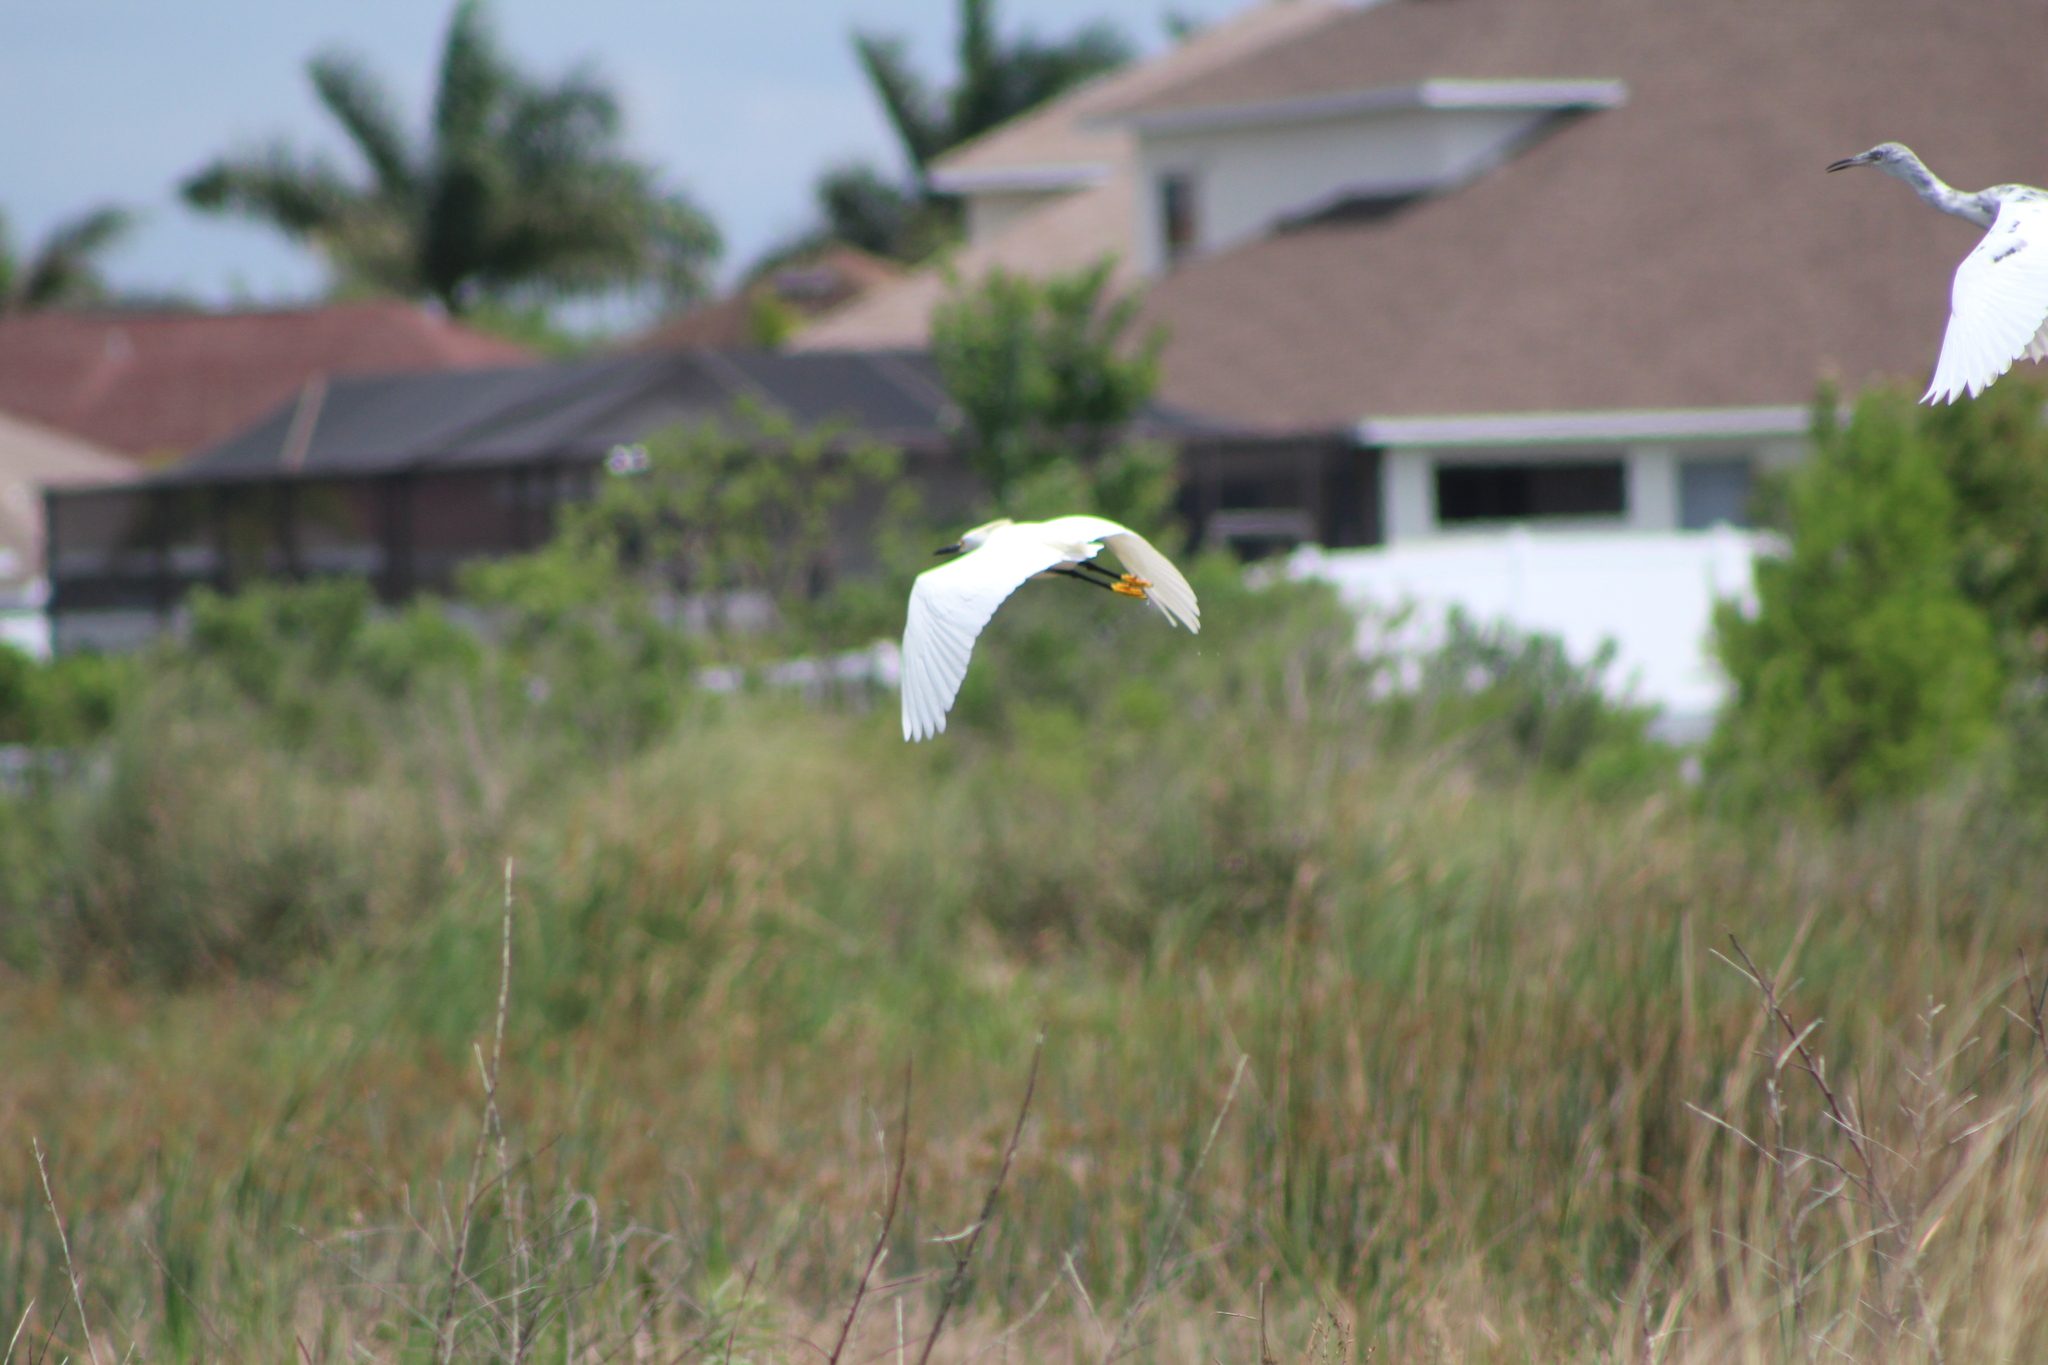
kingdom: Animalia
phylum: Chordata
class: Aves
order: Pelecaniformes
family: Ardeidae
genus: Egretta
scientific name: Egretta thula
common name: Snowy egret
